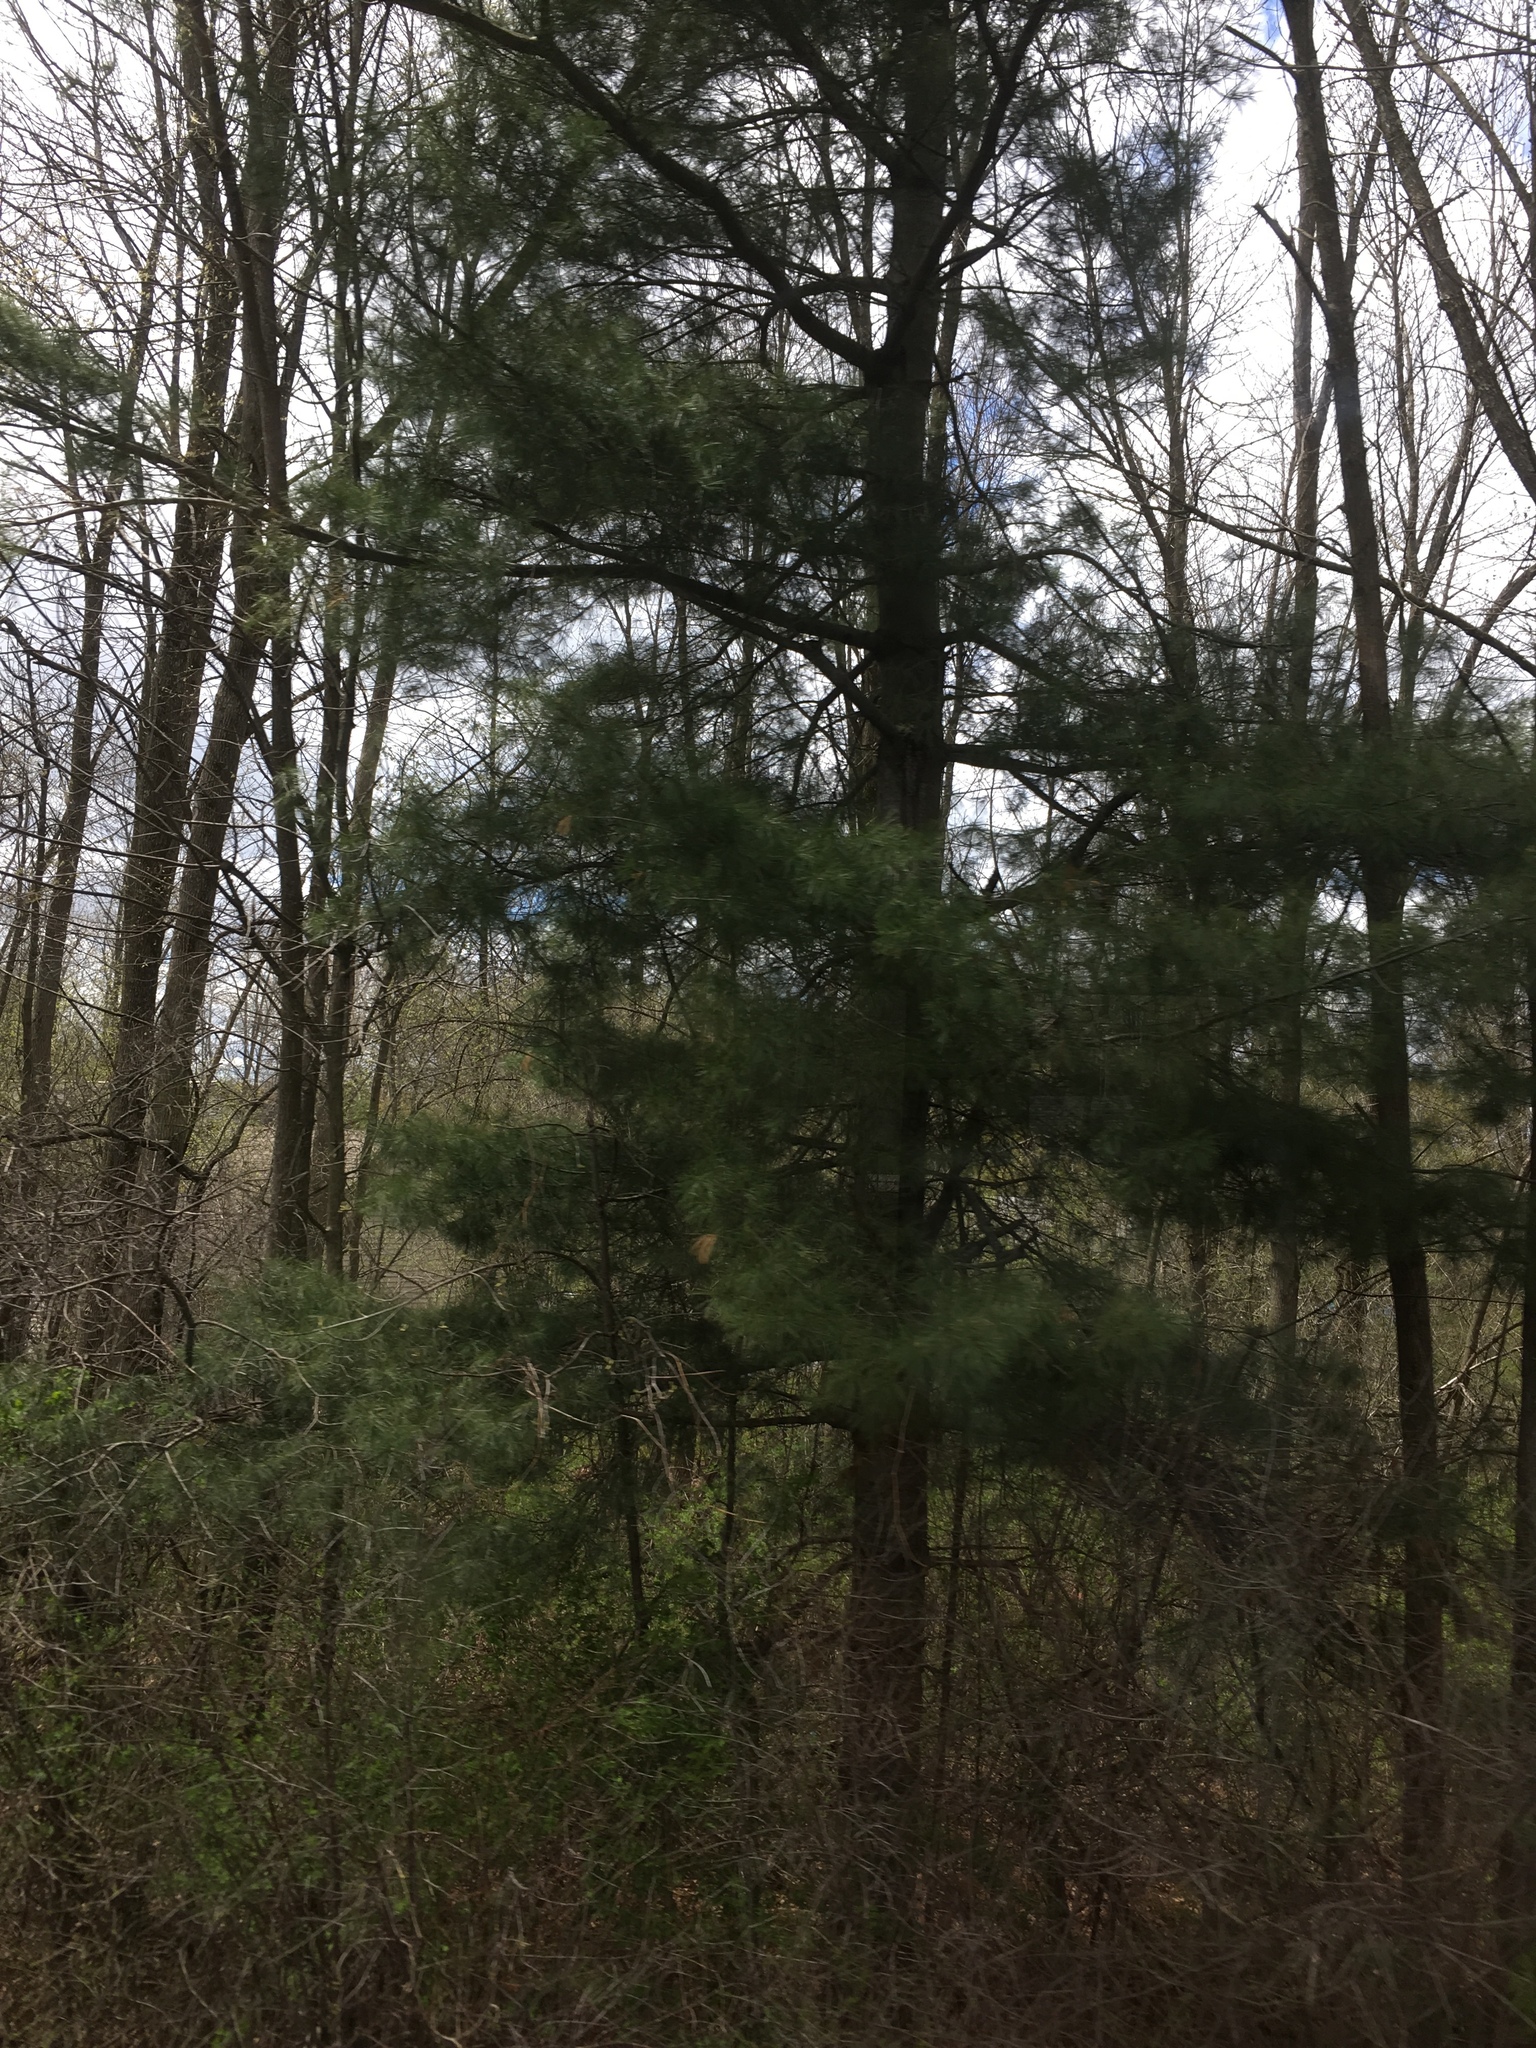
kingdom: Plantae
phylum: Tracheophyta
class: Pinopsida
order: Pinales
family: Pinaceae
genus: Pinus
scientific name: Pinus strobus
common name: Weymouth pine
